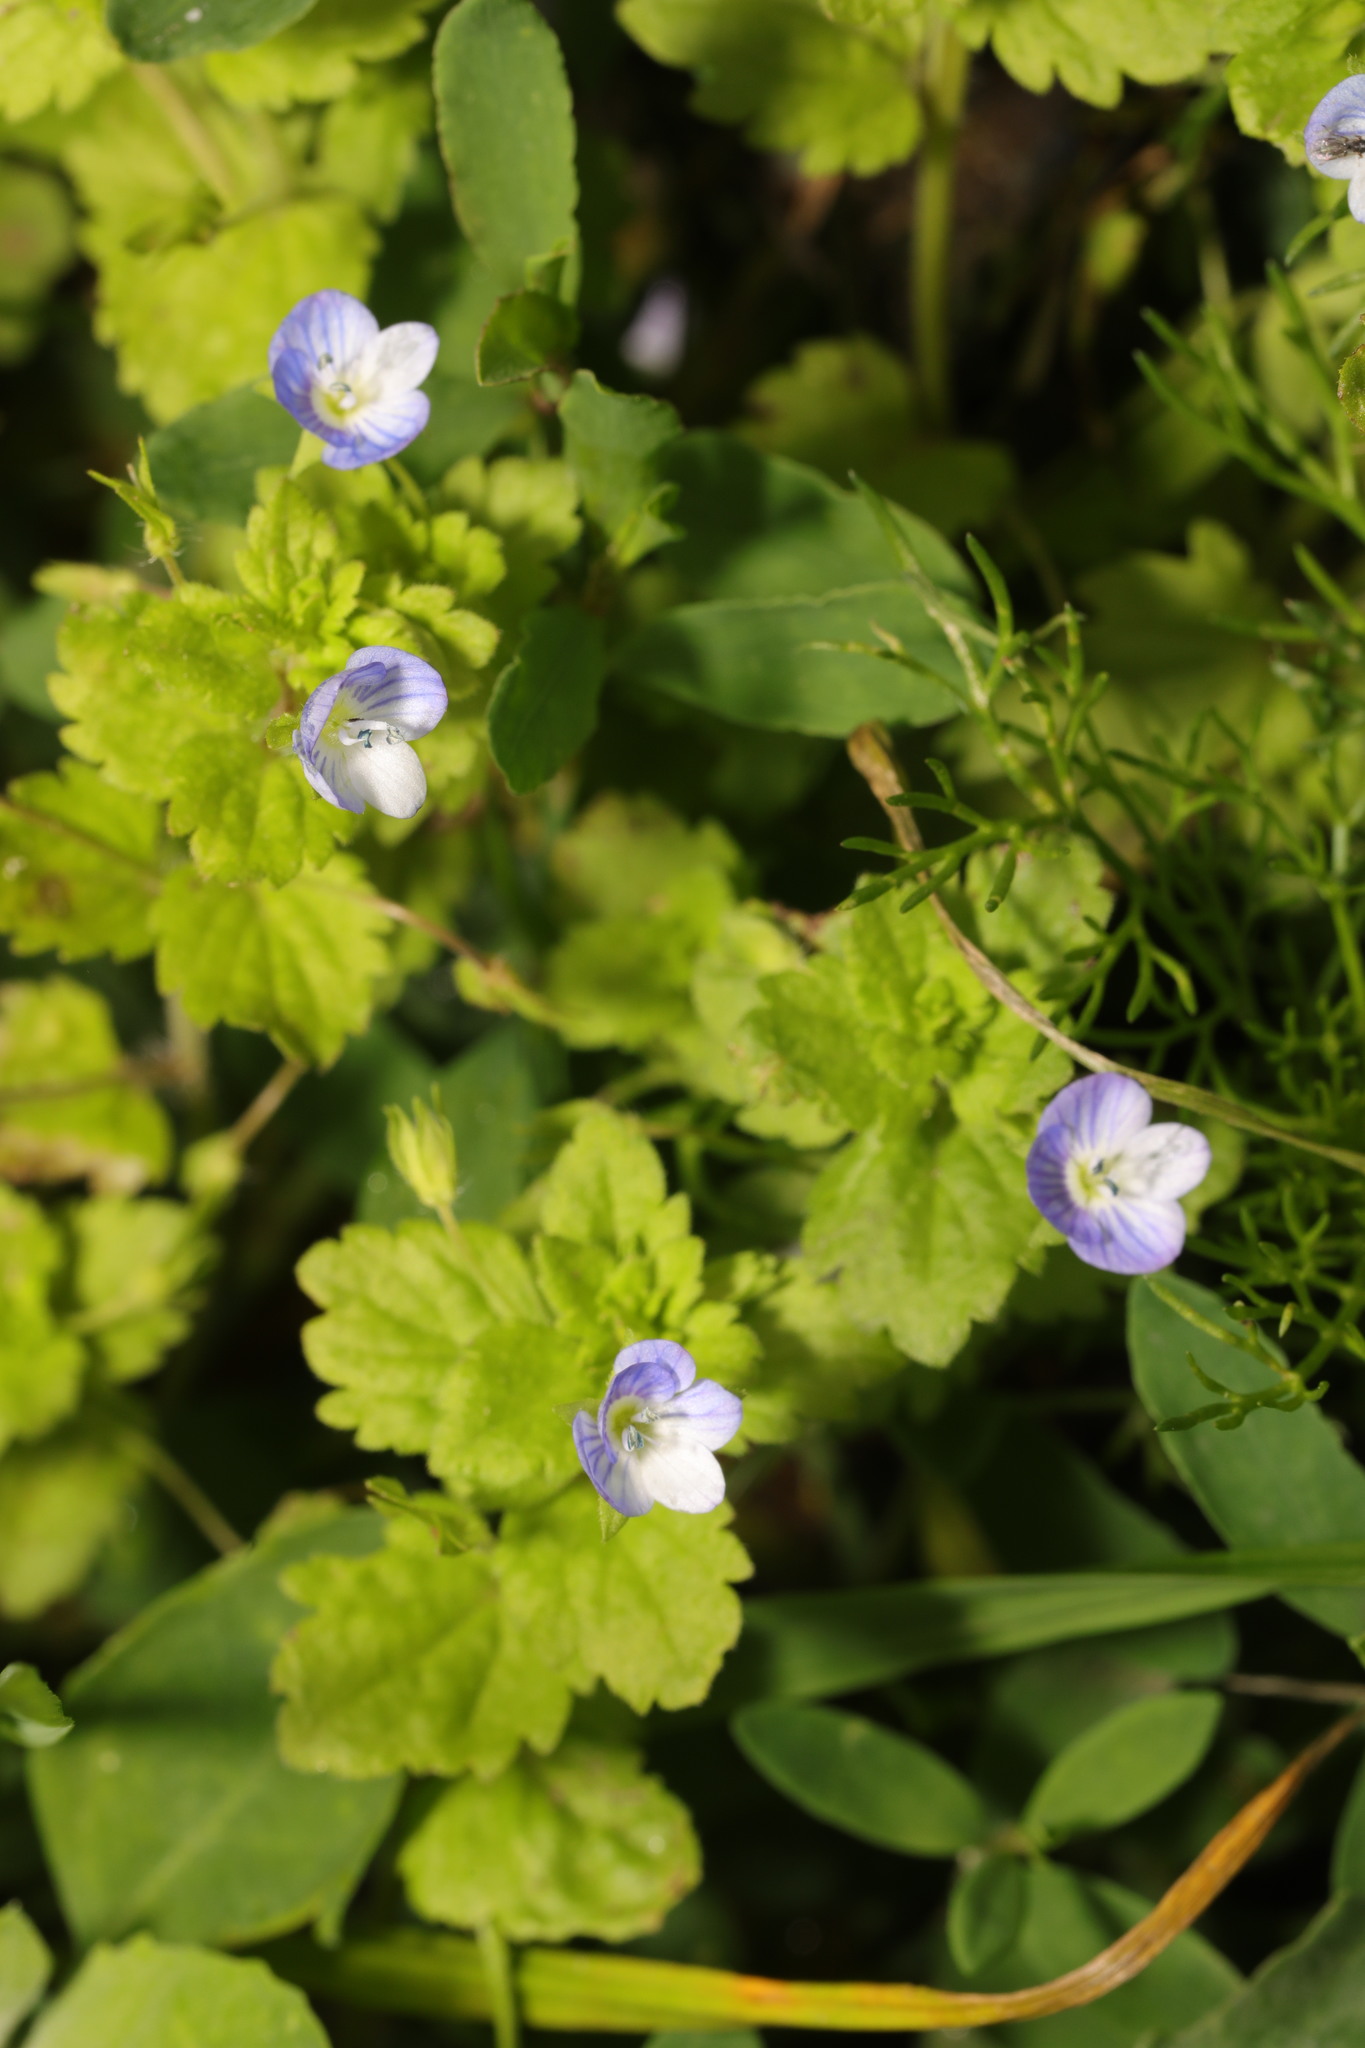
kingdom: Plantae
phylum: Tracheophyta
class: Magnoliopsida
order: Lamiales
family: Plantaginaceae
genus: Veronica
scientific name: Veronica persica
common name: Common field-speedwell
